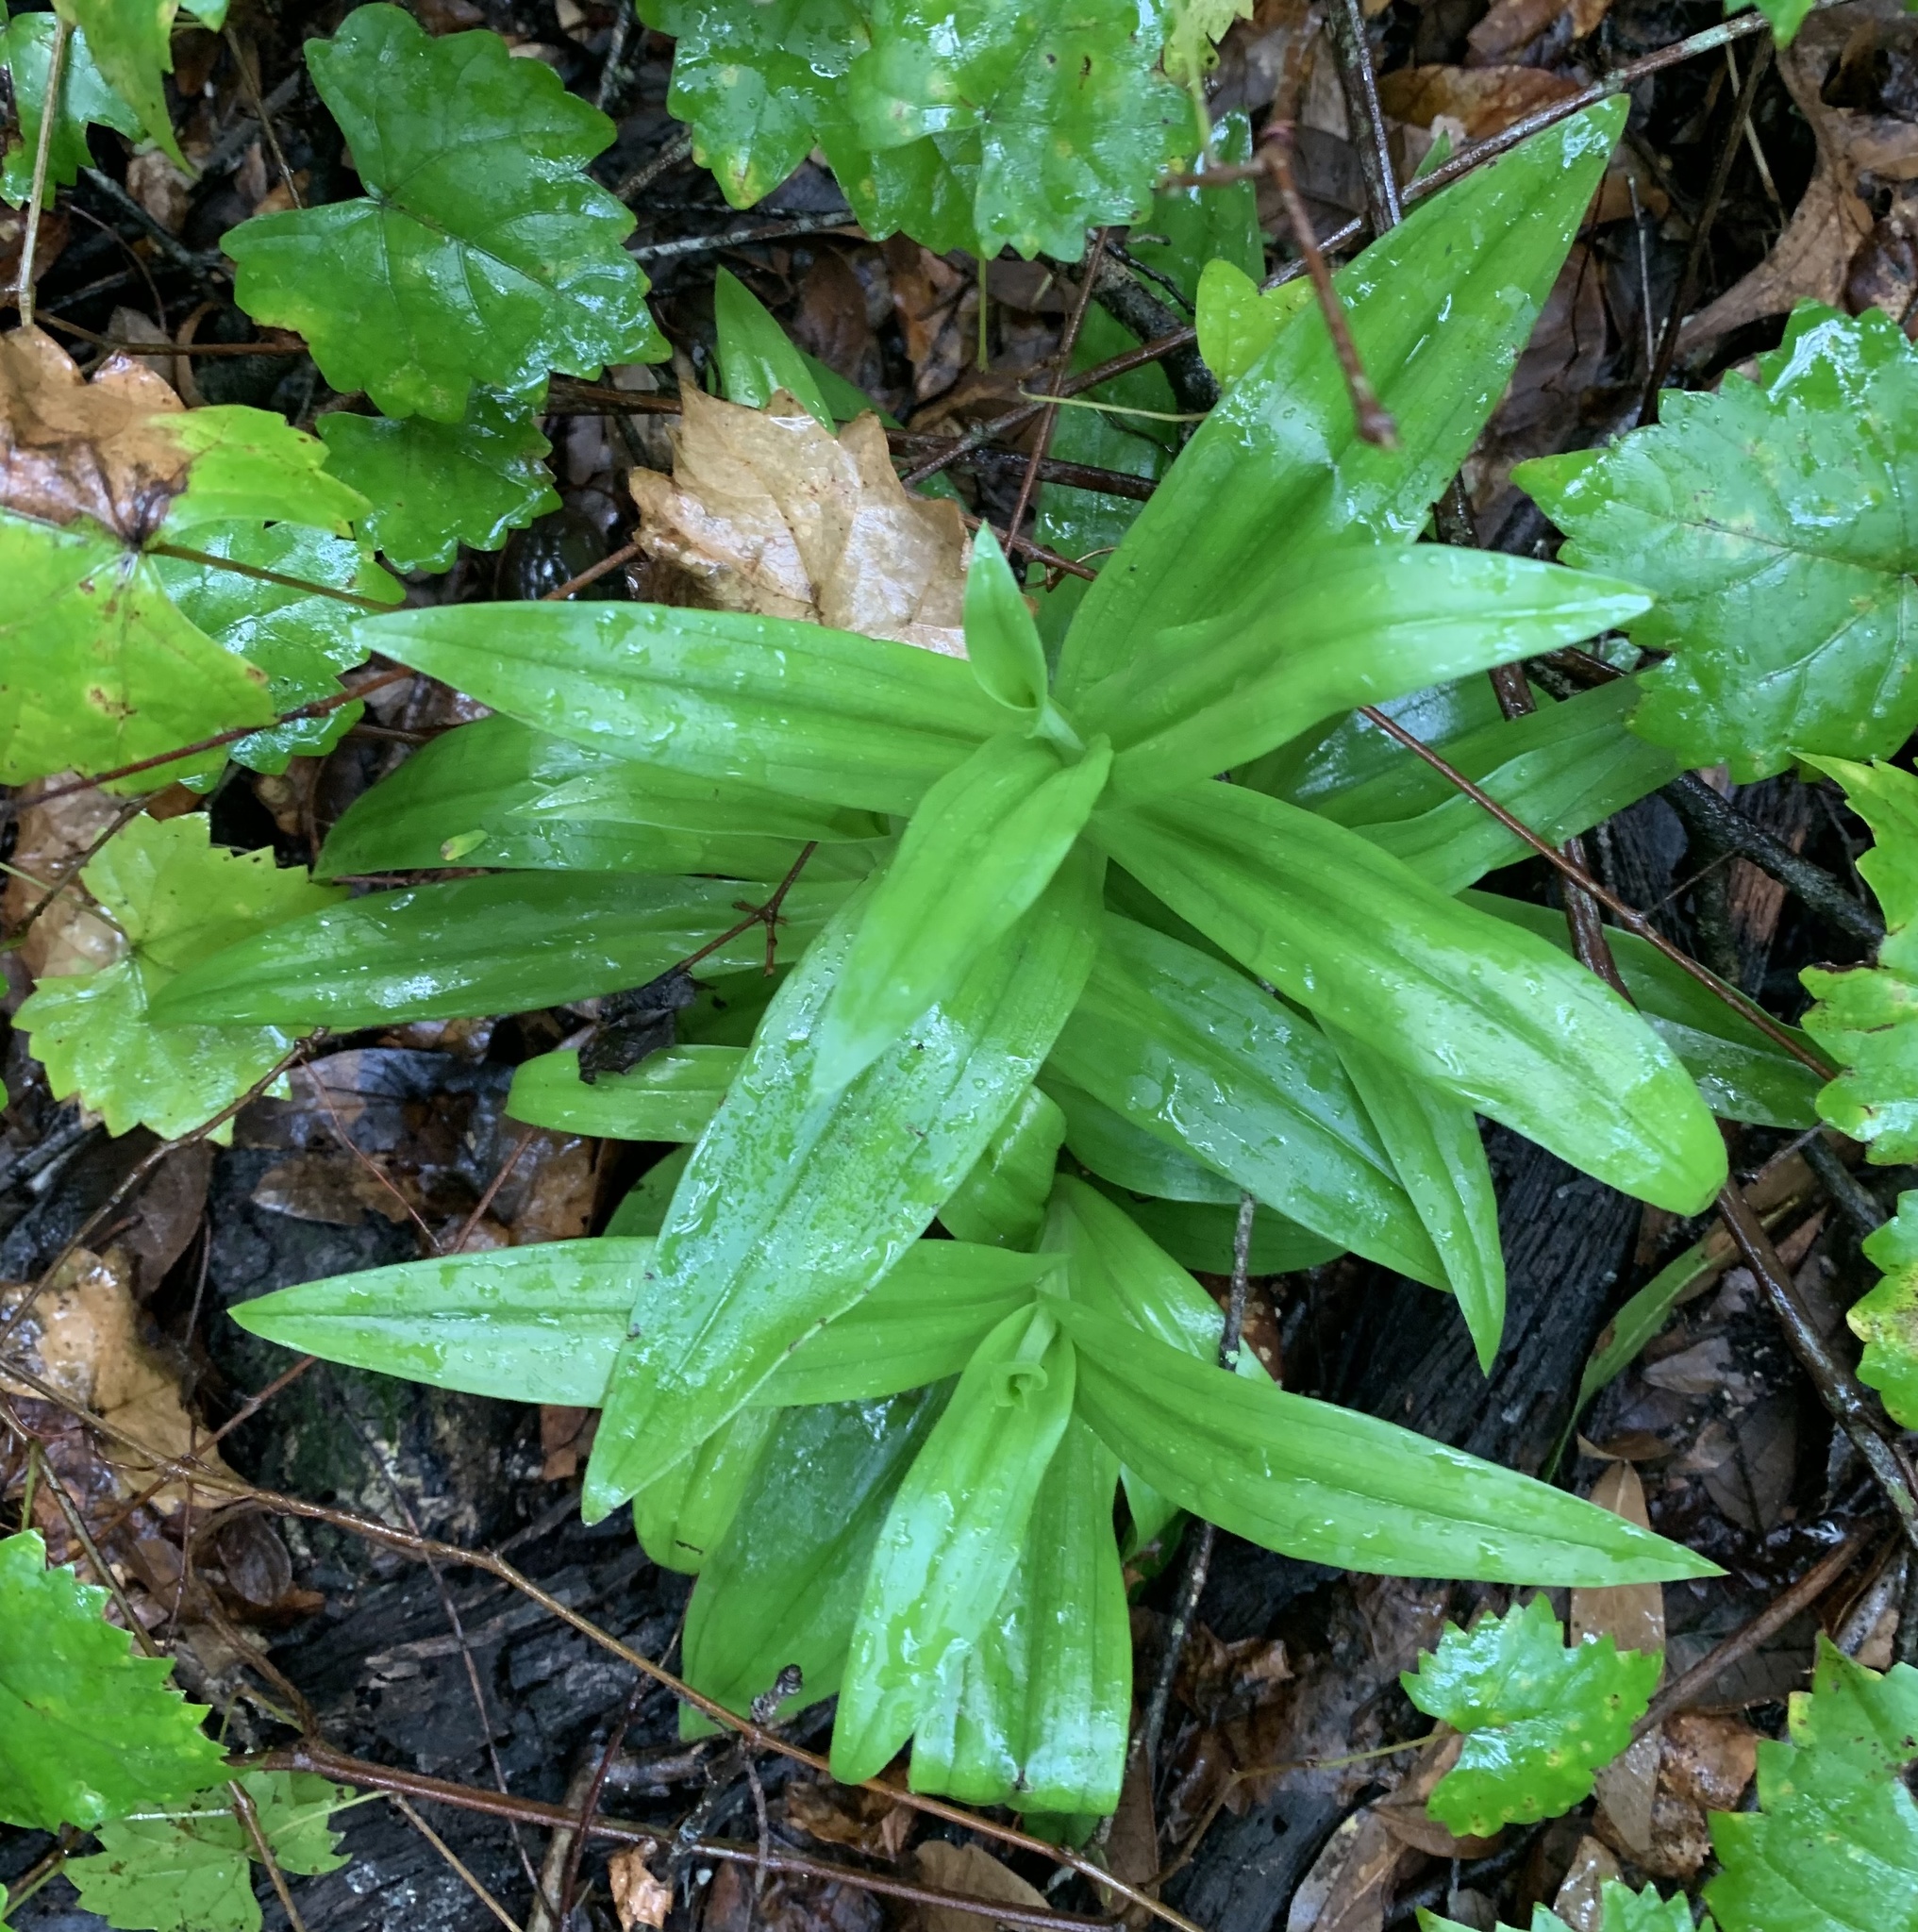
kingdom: Plantae
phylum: Tracheophyta
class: Liliopsida
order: Asparagales
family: Orchidaceae
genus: Habenaria
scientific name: Habenaria floribunda
